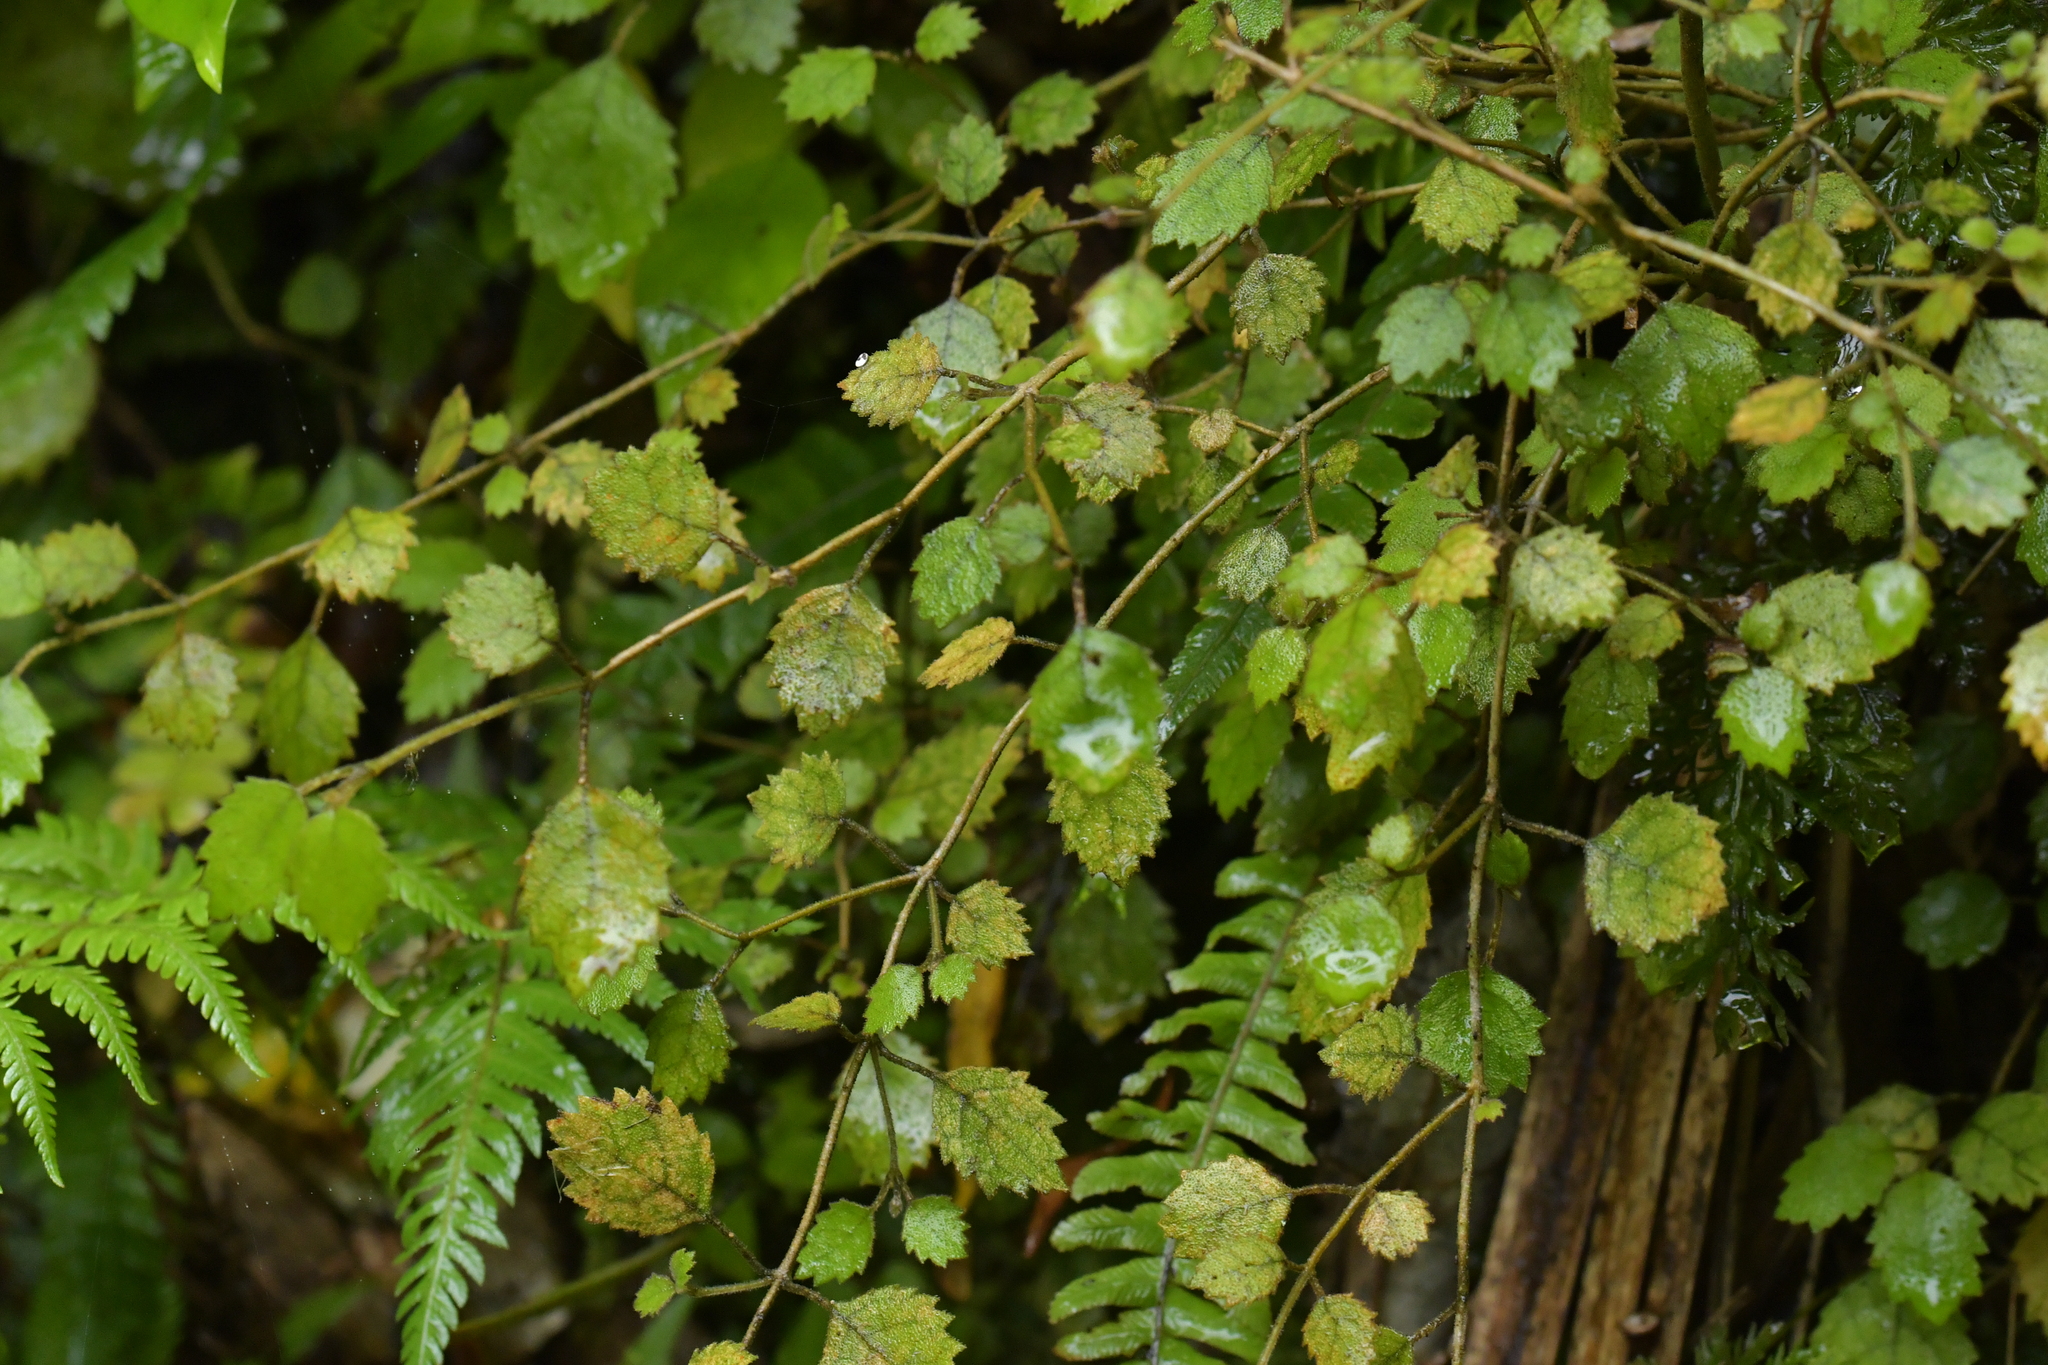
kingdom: Plantae
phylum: Tracheophyta
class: Magnoliopsida
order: Lamiales
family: Gesneriaceae
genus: Rhabdothamnus
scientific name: Rhabdothamnus solandri
